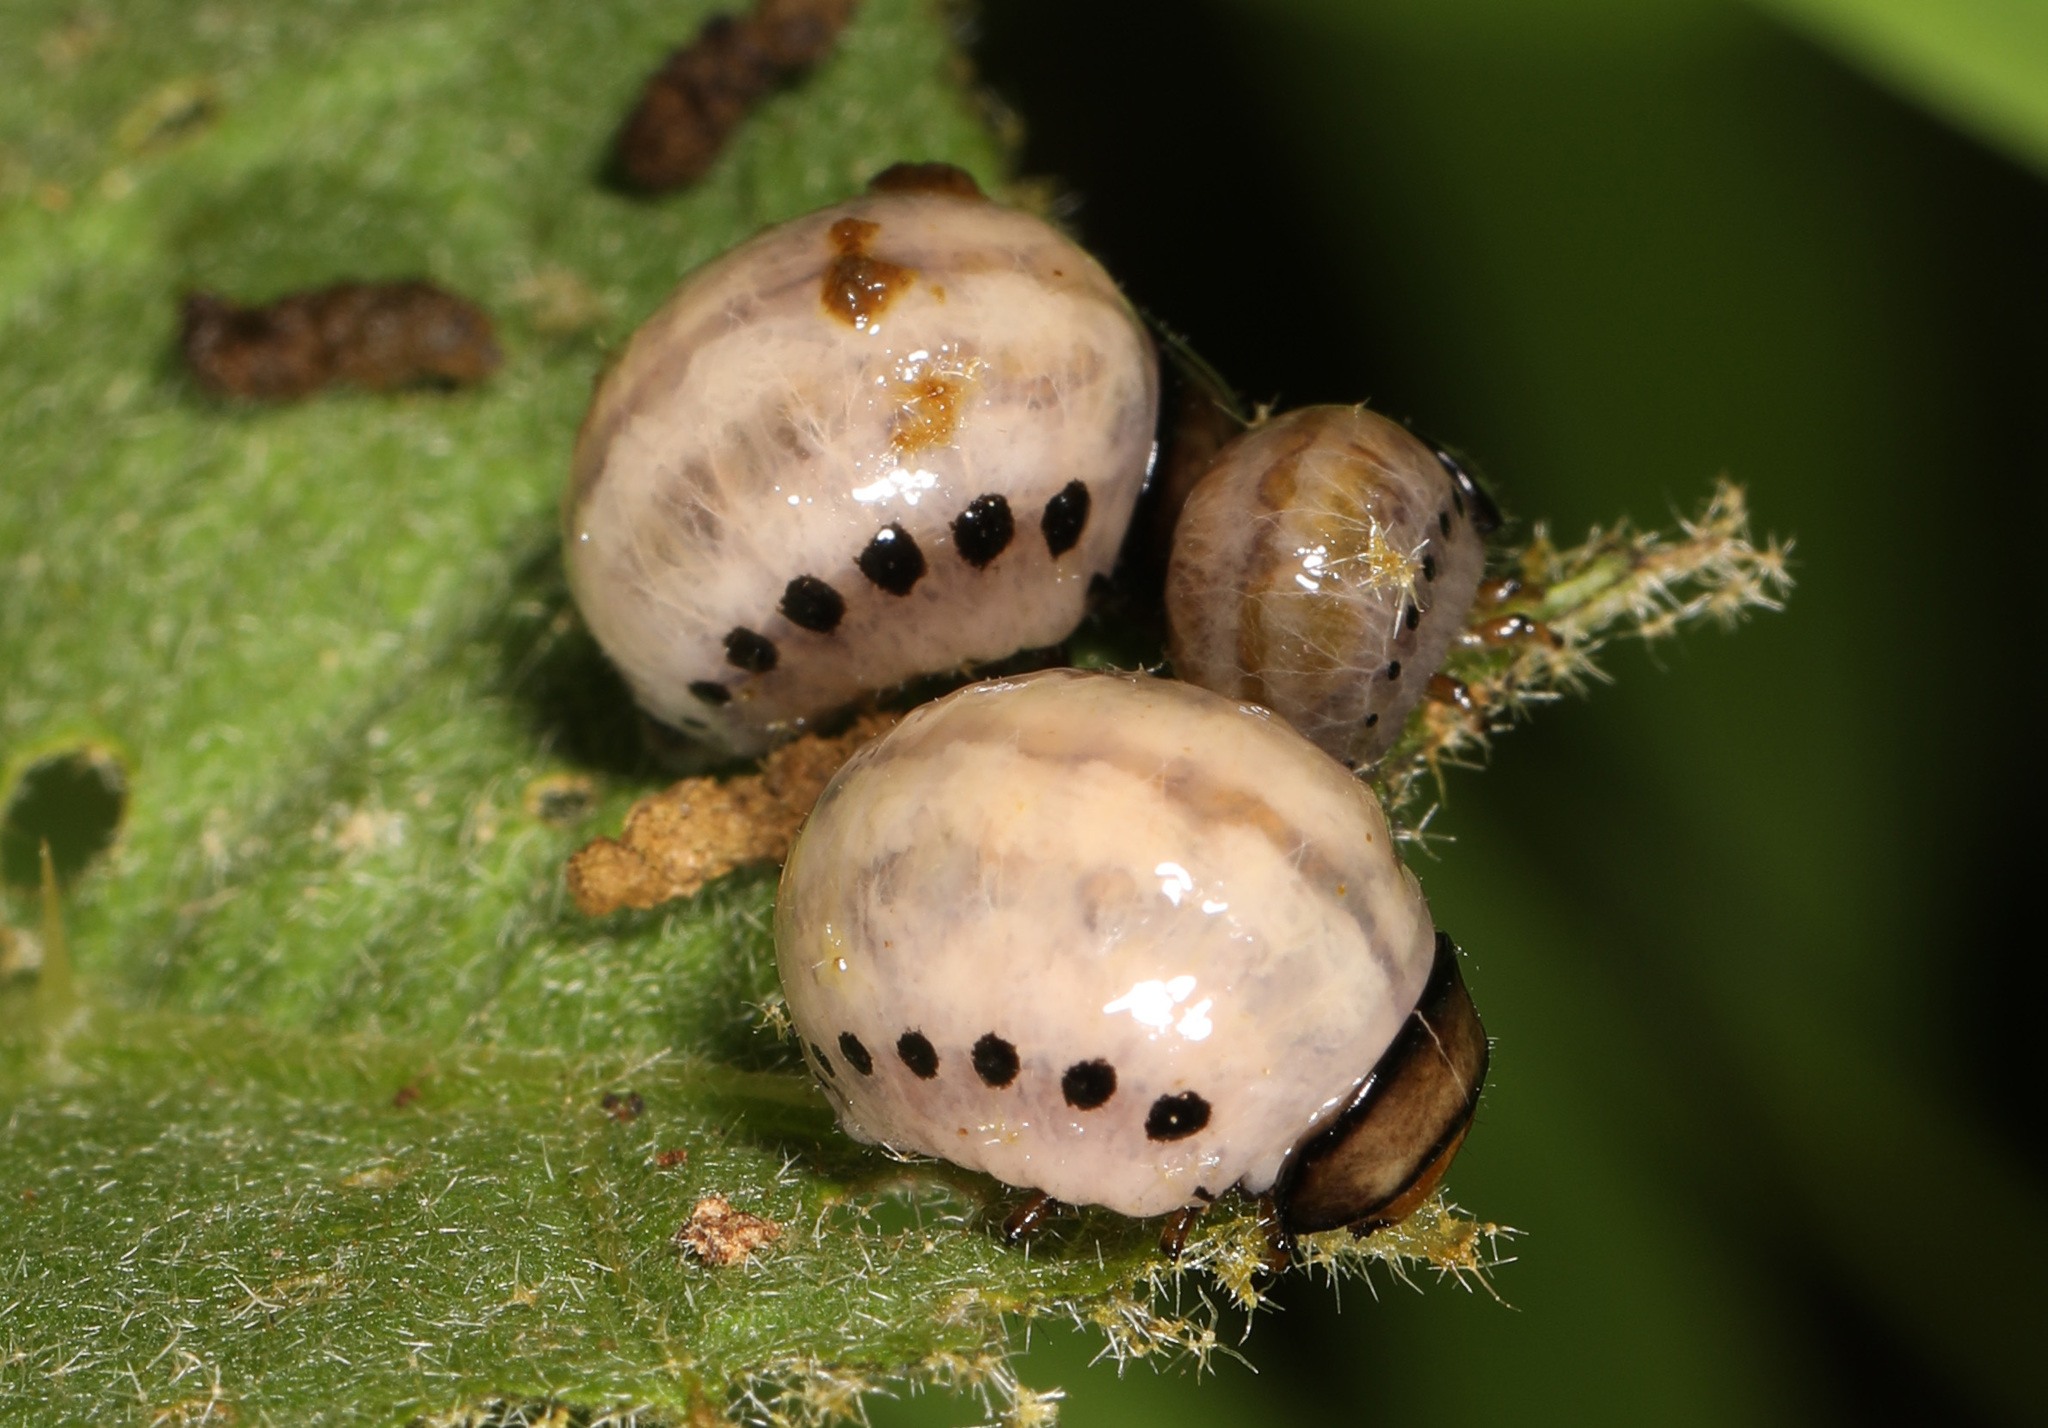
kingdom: Animalia
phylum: Arthropoda
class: Insecta
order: Coleoptera
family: Chrysomelidae
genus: Leptinotarsa
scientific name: Leptinotarsa juncta
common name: False potato beetle
